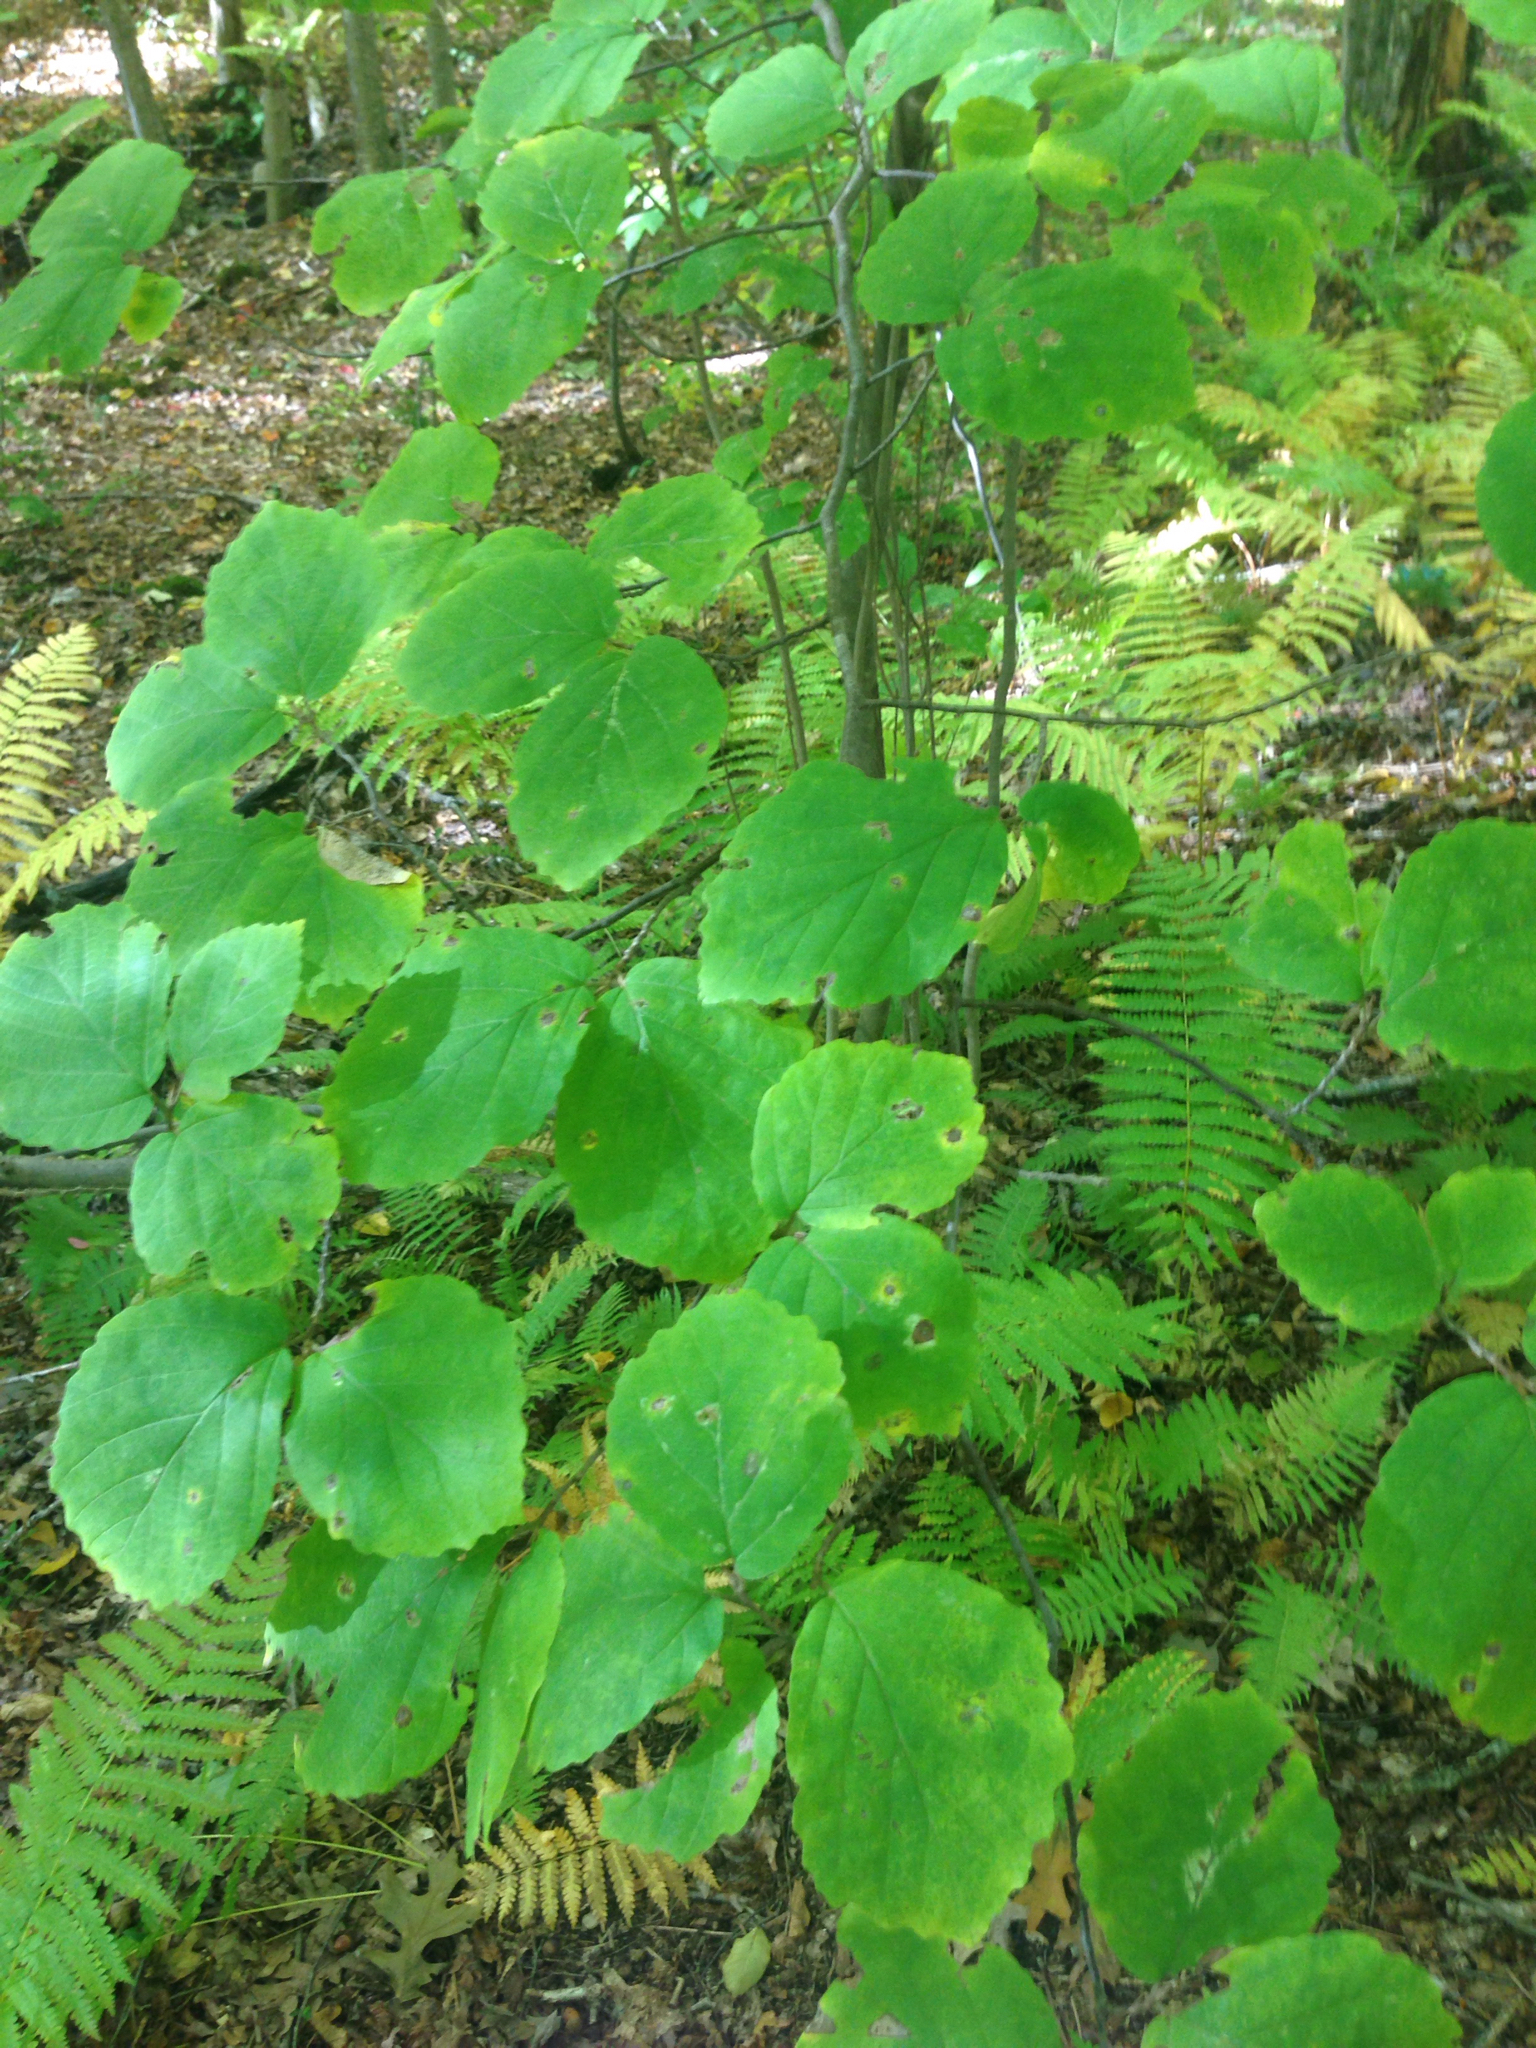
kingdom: Plantae
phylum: Tracheophyta
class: Magnoliopsida
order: Saxifragales
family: Hamamelidaceae
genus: Hamamelis
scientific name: Hamamelis virginiana
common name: Witch-hazel
